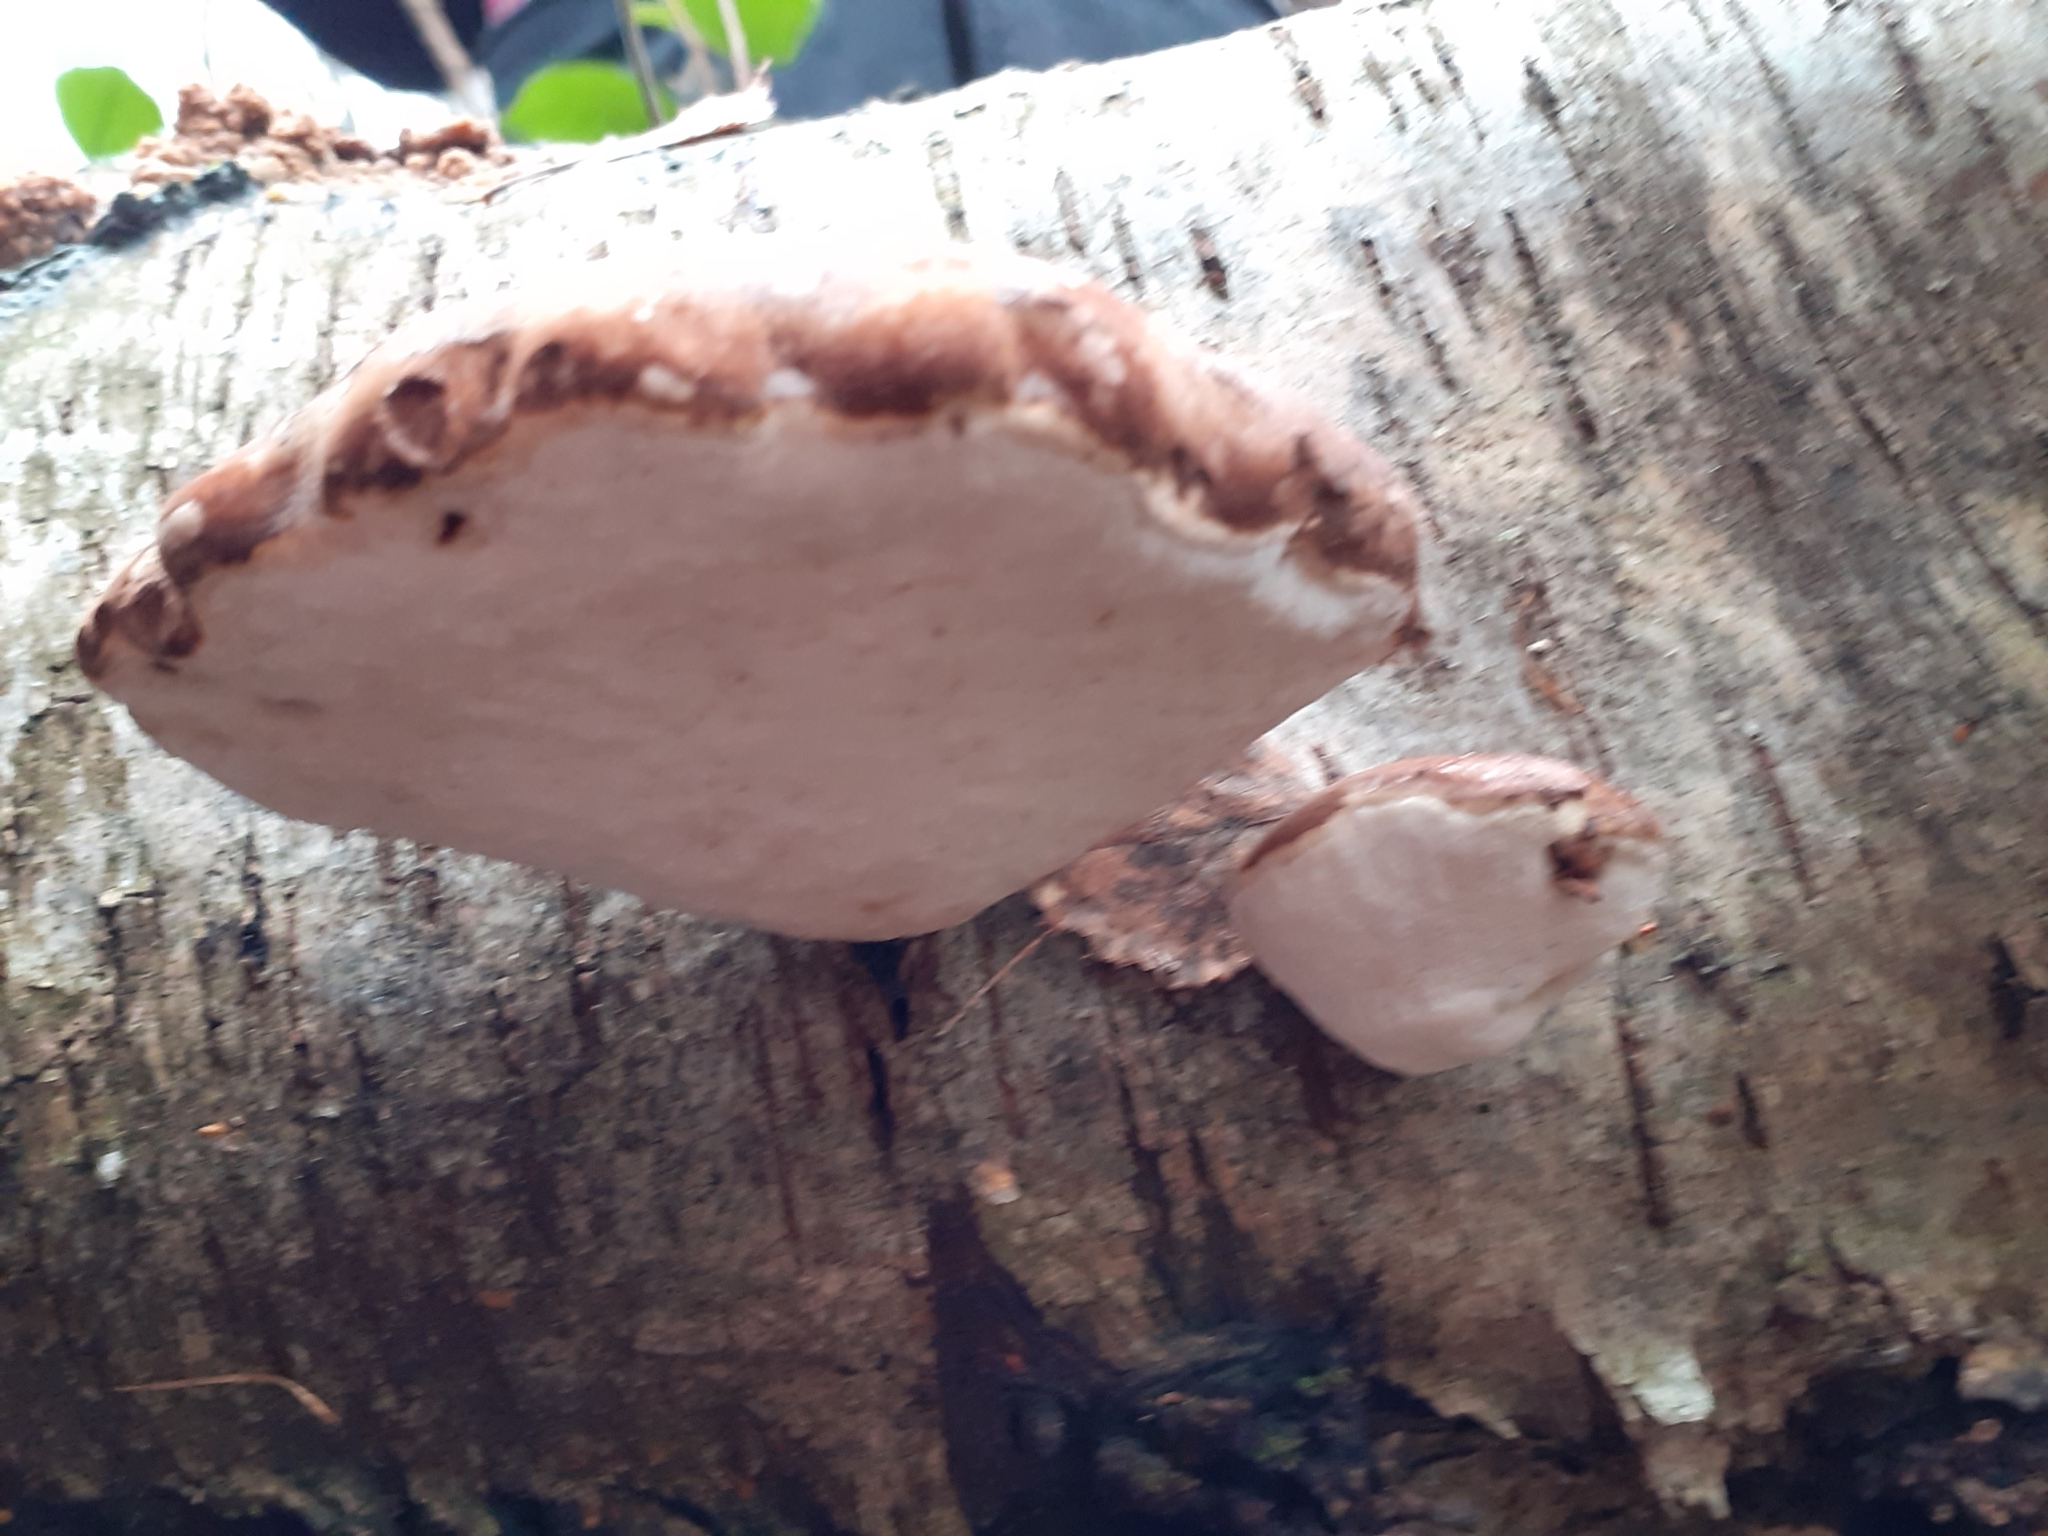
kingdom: Fungi
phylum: Basidiomycota
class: Agaricomycetes
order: Polyporales
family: Fomitopsidaceae
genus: Fomitopsis
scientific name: Fomitopsis betulina
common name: Birch polypore
